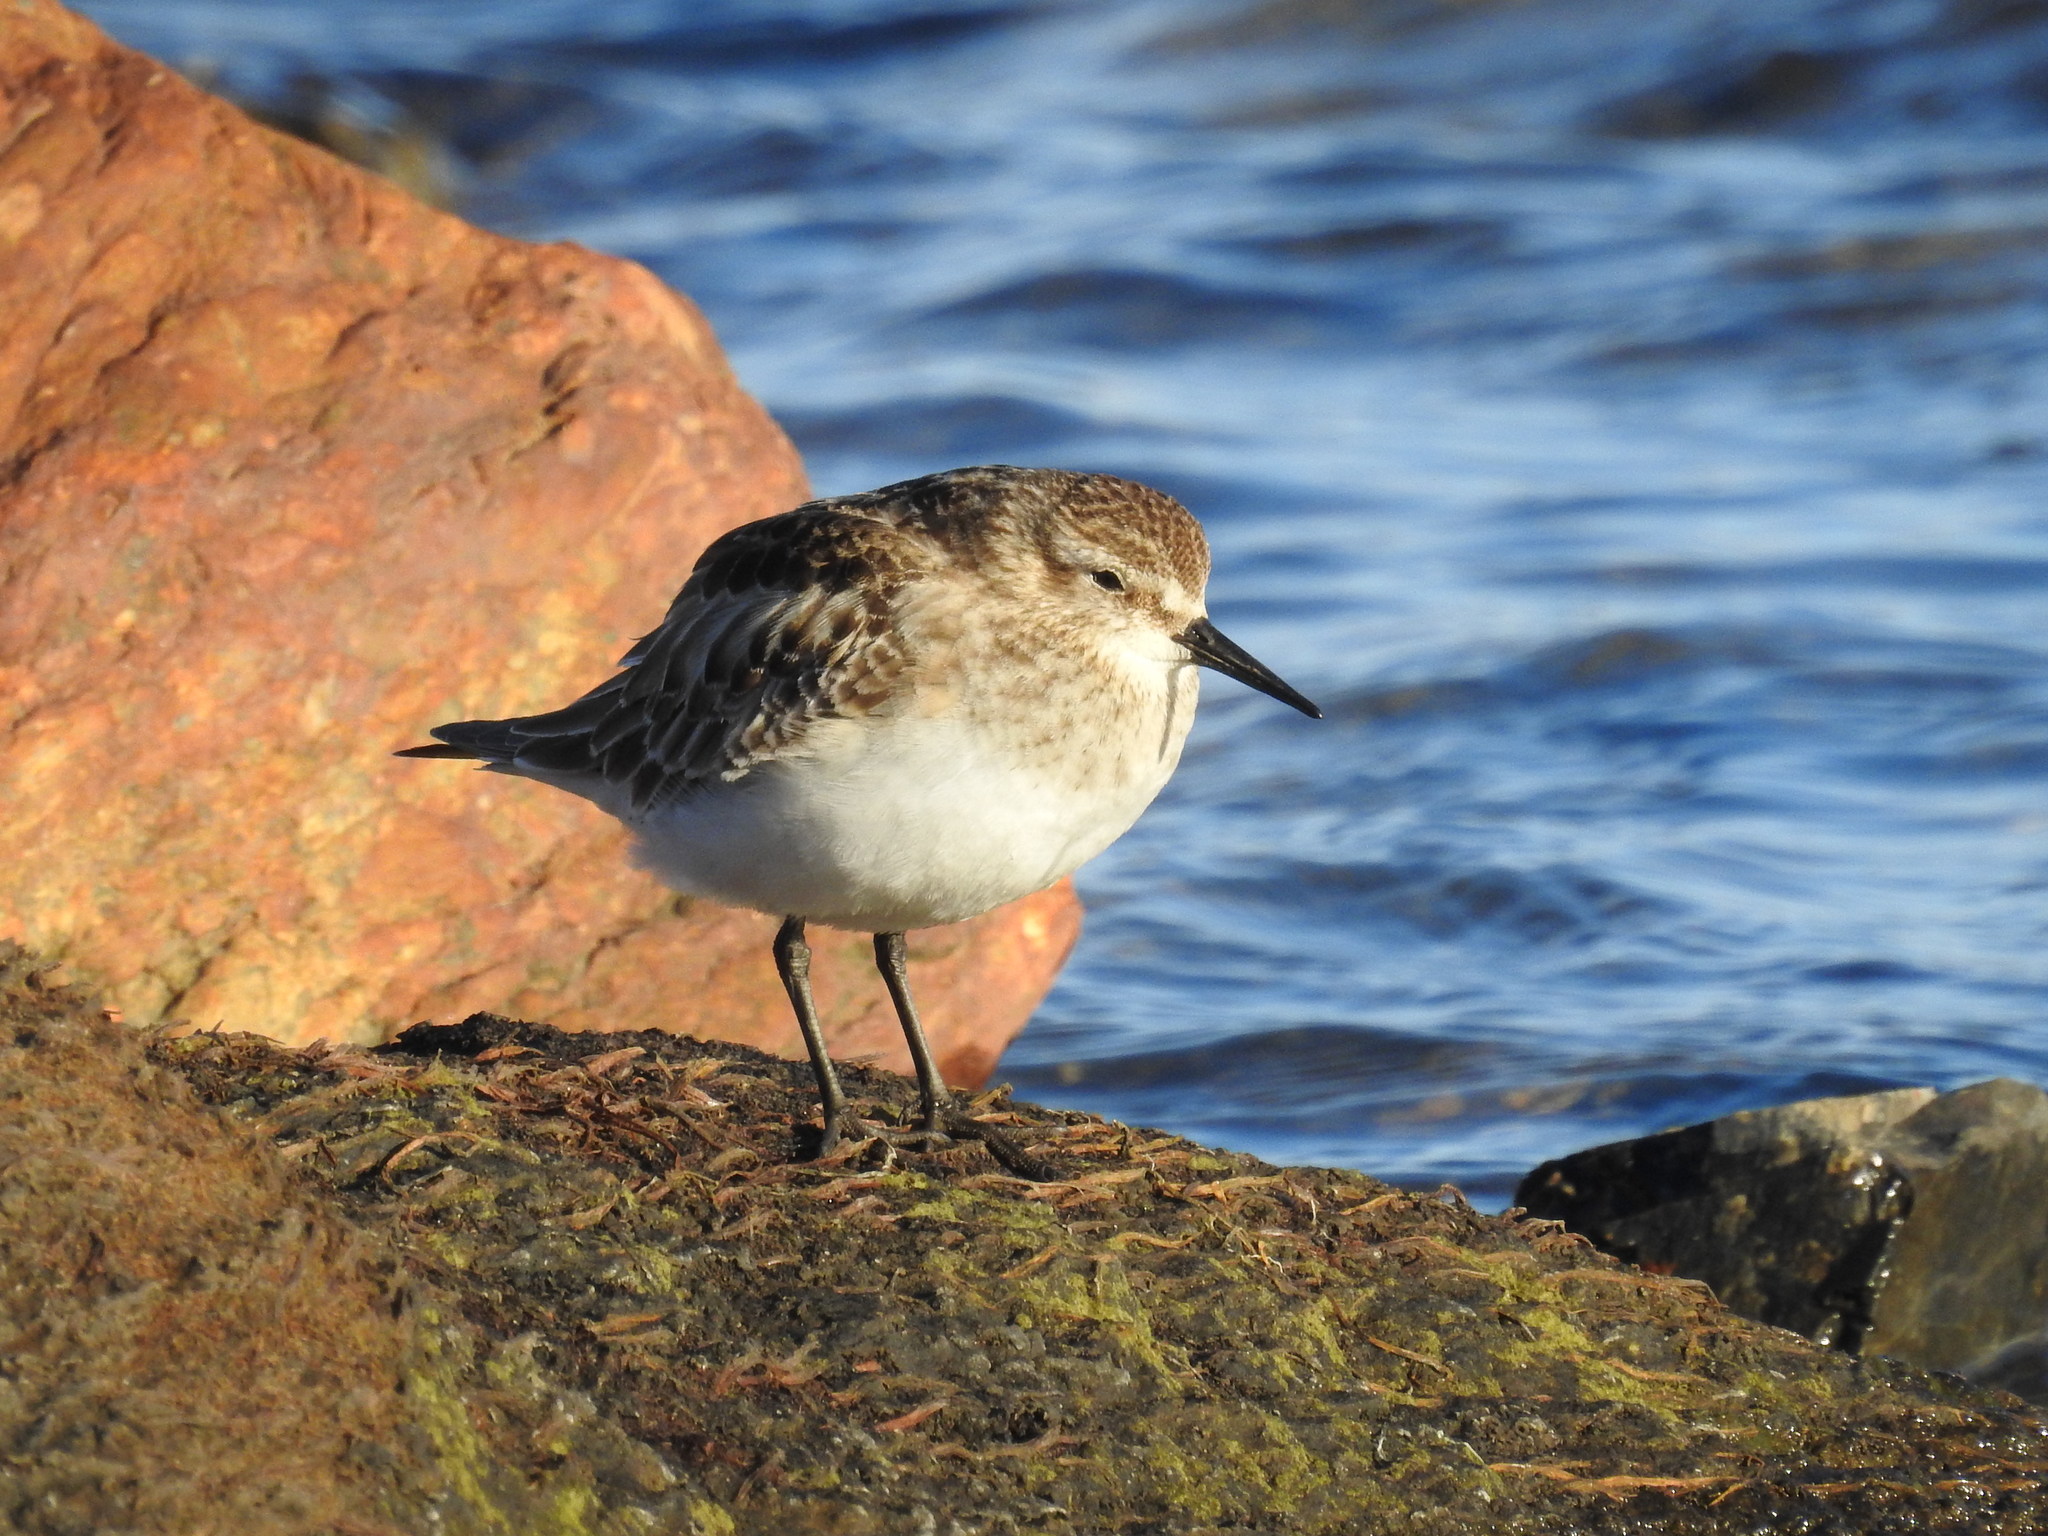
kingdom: Animalia
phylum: Chordata
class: Aves
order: Charadriiformes
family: Scolopacidae
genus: Calidris
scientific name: Calidris bairdii
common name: Baird's sandpiper
